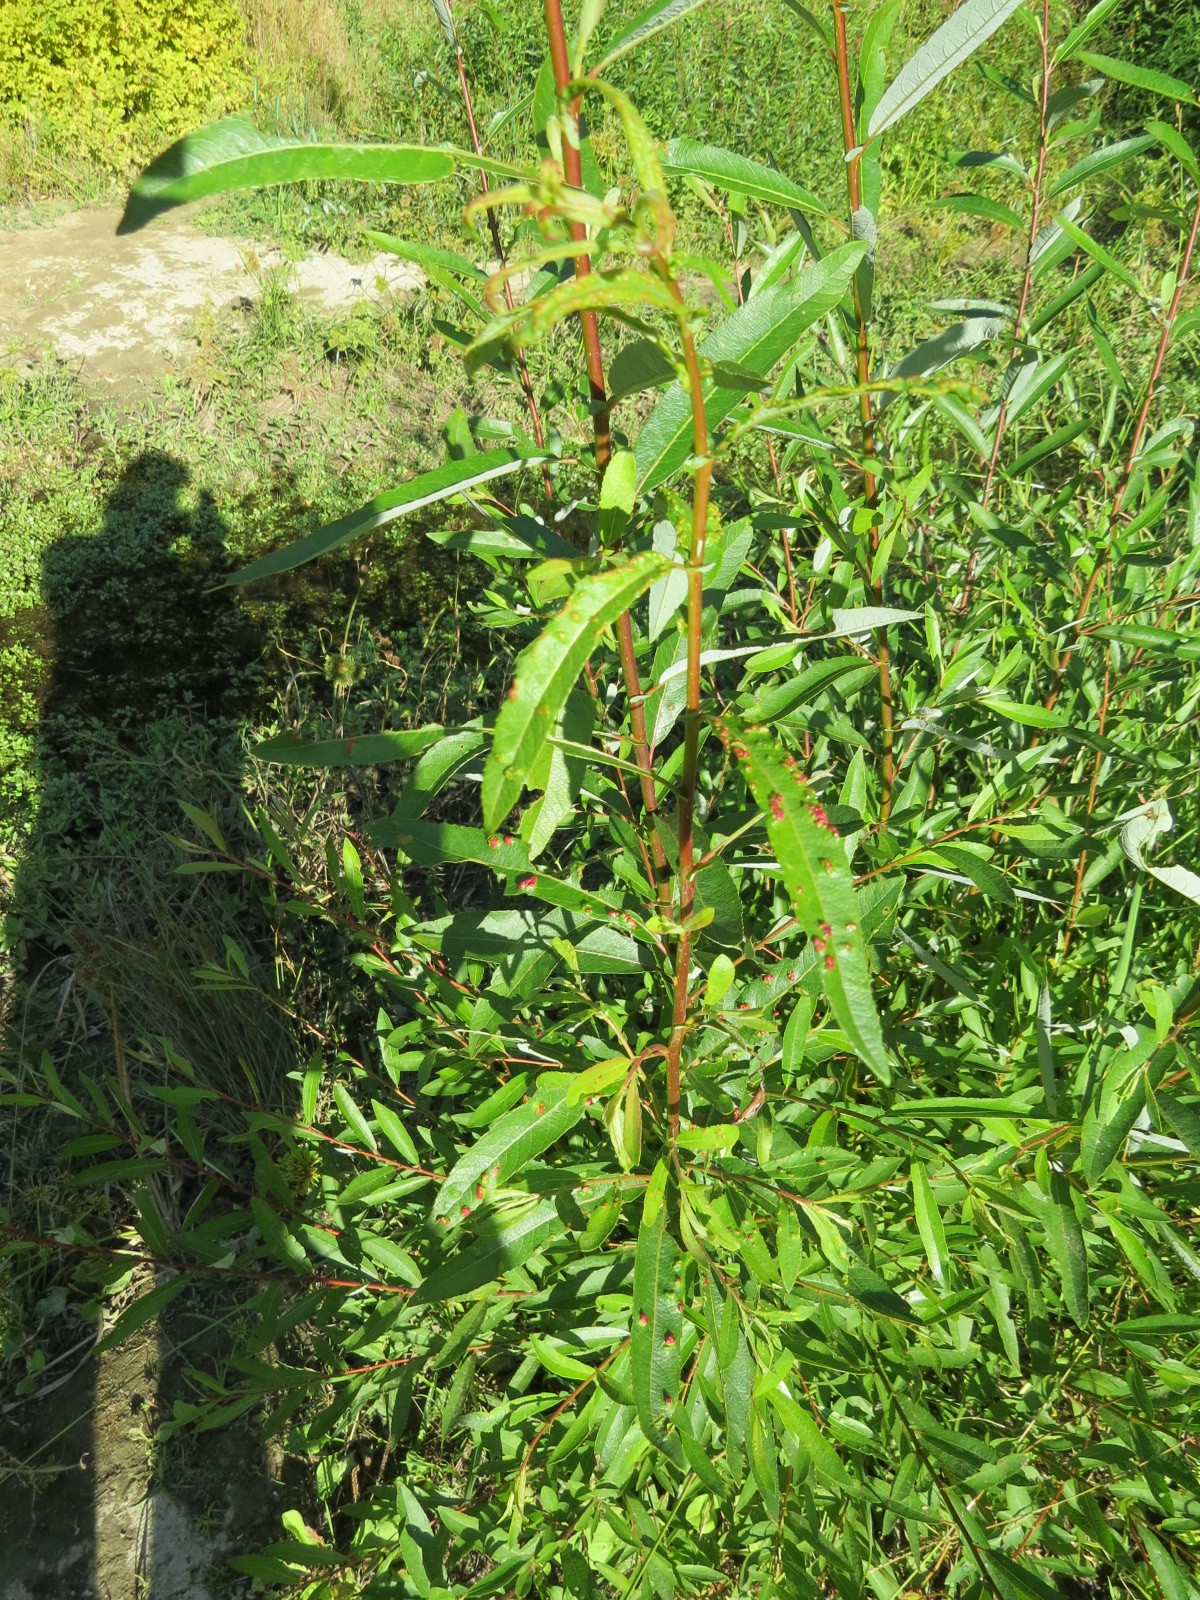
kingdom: Animalia
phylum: Arthropoda
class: Arachnida
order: Trombidiformes
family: Eriophyidae
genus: Aculus
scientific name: Aculus tetanothrix
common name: Willow bead gall mite
